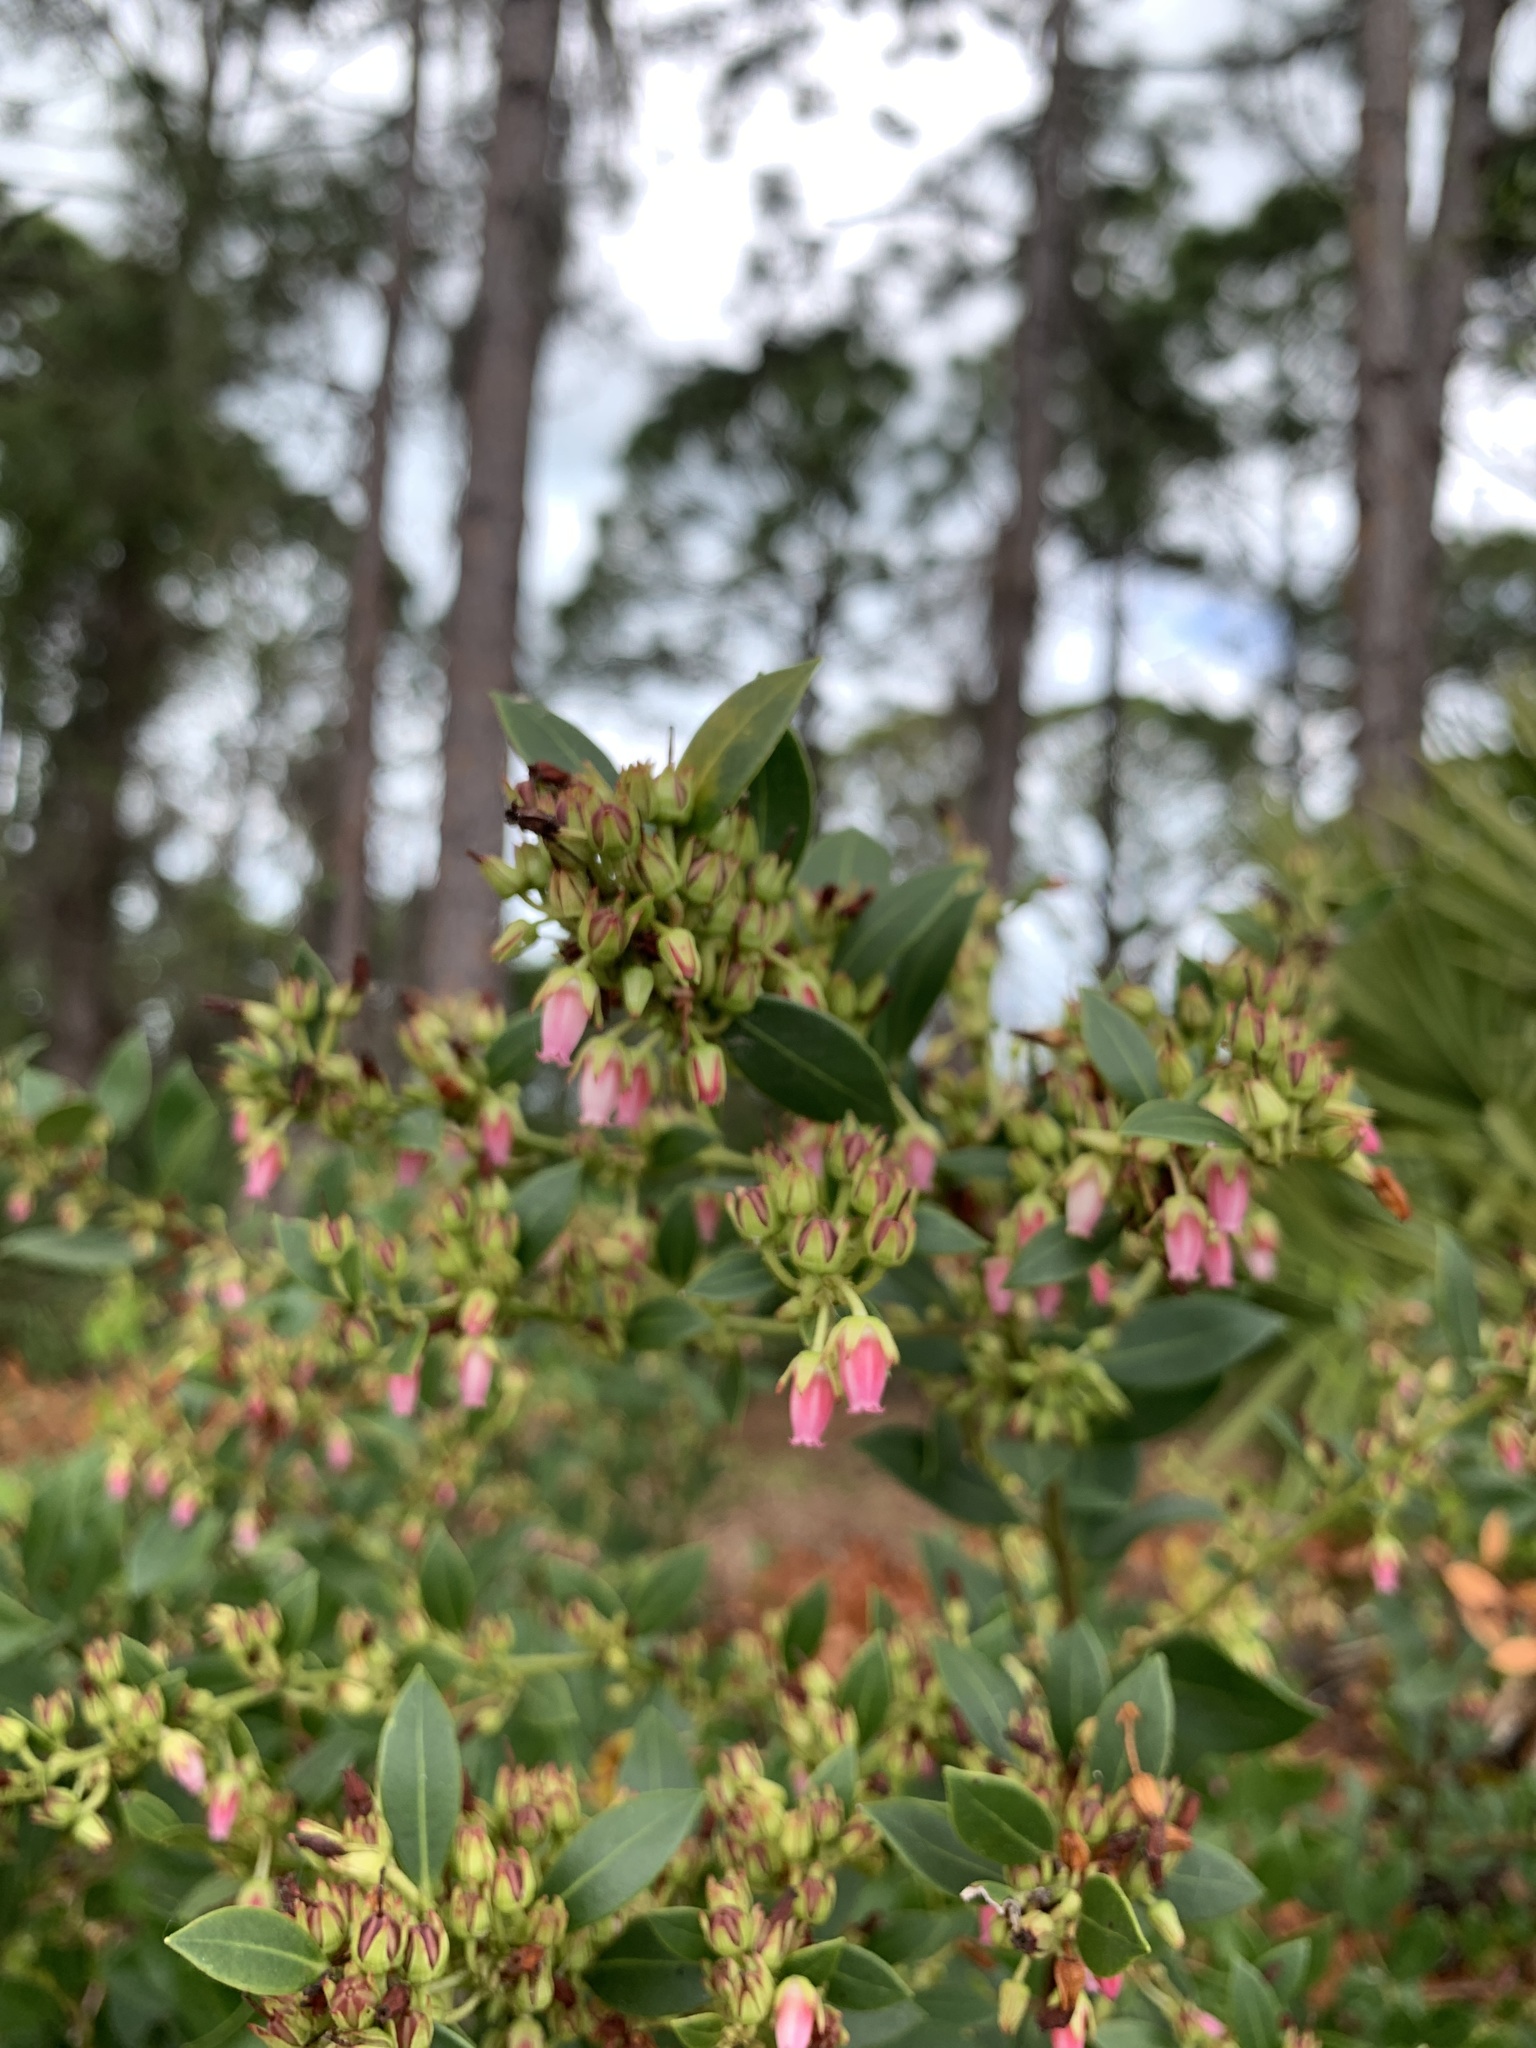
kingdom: Plantae
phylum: Tracheophyta
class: Magnoliopsida
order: Ericales
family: Ericaceae
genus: Lyonia
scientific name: Lyonia lucida
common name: Fetterbush
